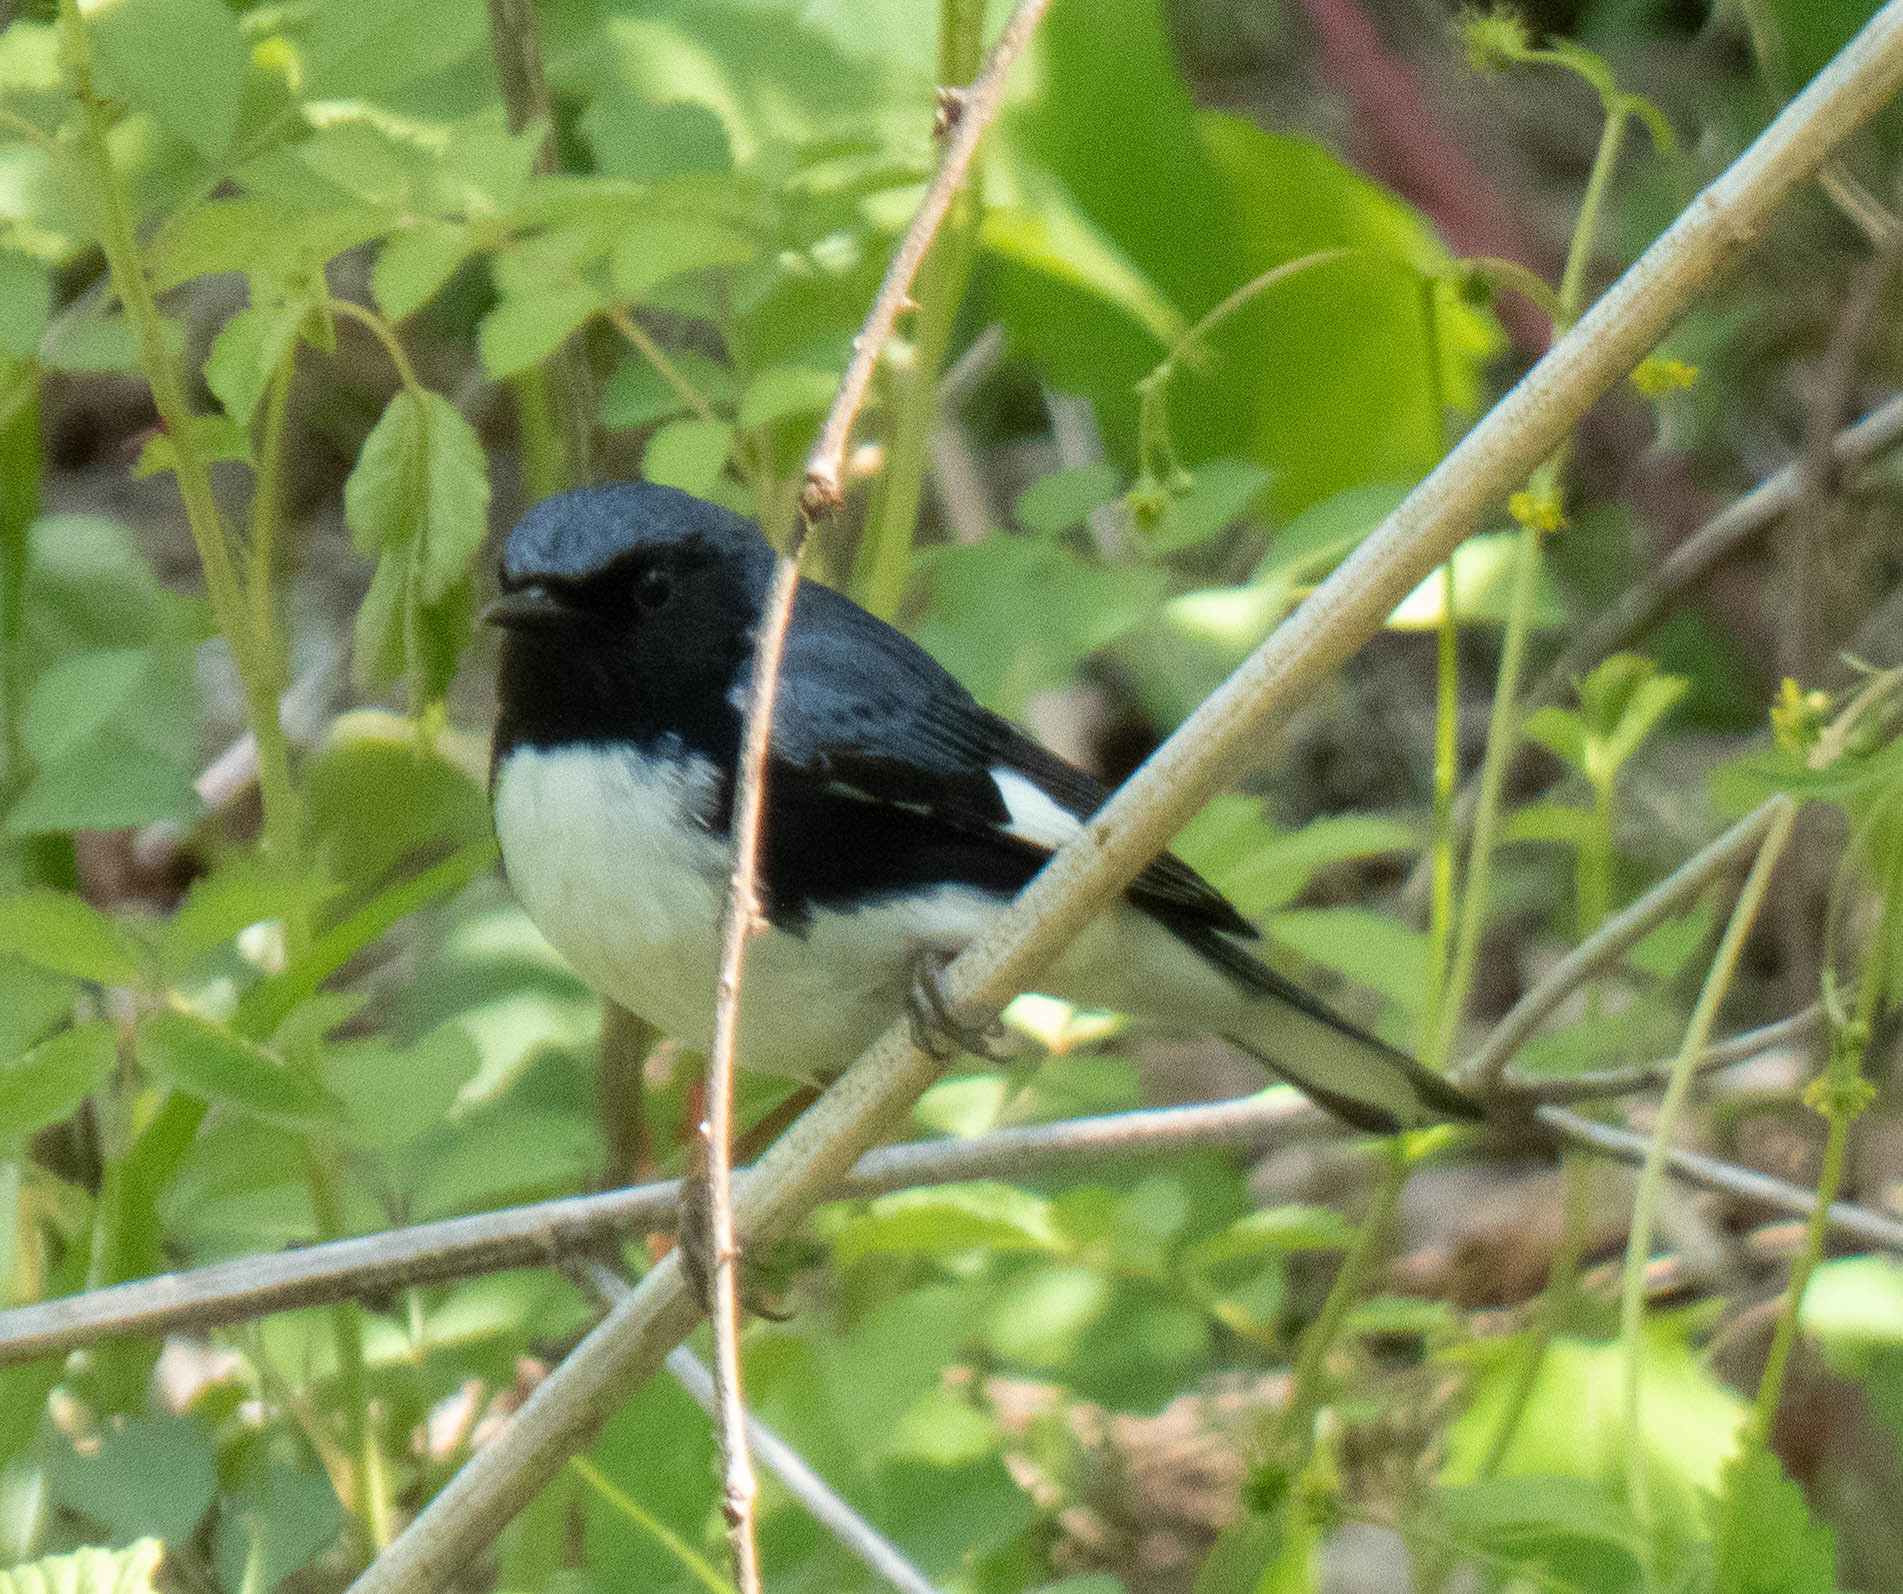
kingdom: Animalia
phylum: Chordata
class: Aves
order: Passeriformes
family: Parulidae
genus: Setophaga
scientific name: Setophaga caerulescens
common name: Black-throated blue warbler
